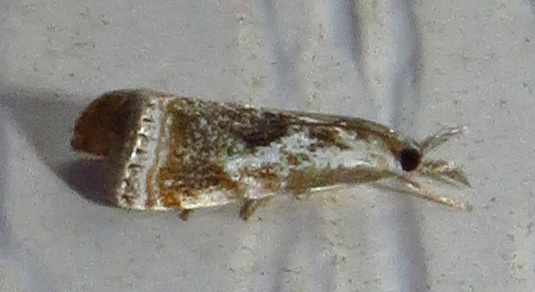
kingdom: Animalia
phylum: Arthropoda
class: Insecta
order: Lepidoptera
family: Crambidae
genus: Microcrambus
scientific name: Microcrambus elegans
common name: Elegant grass-veneer
